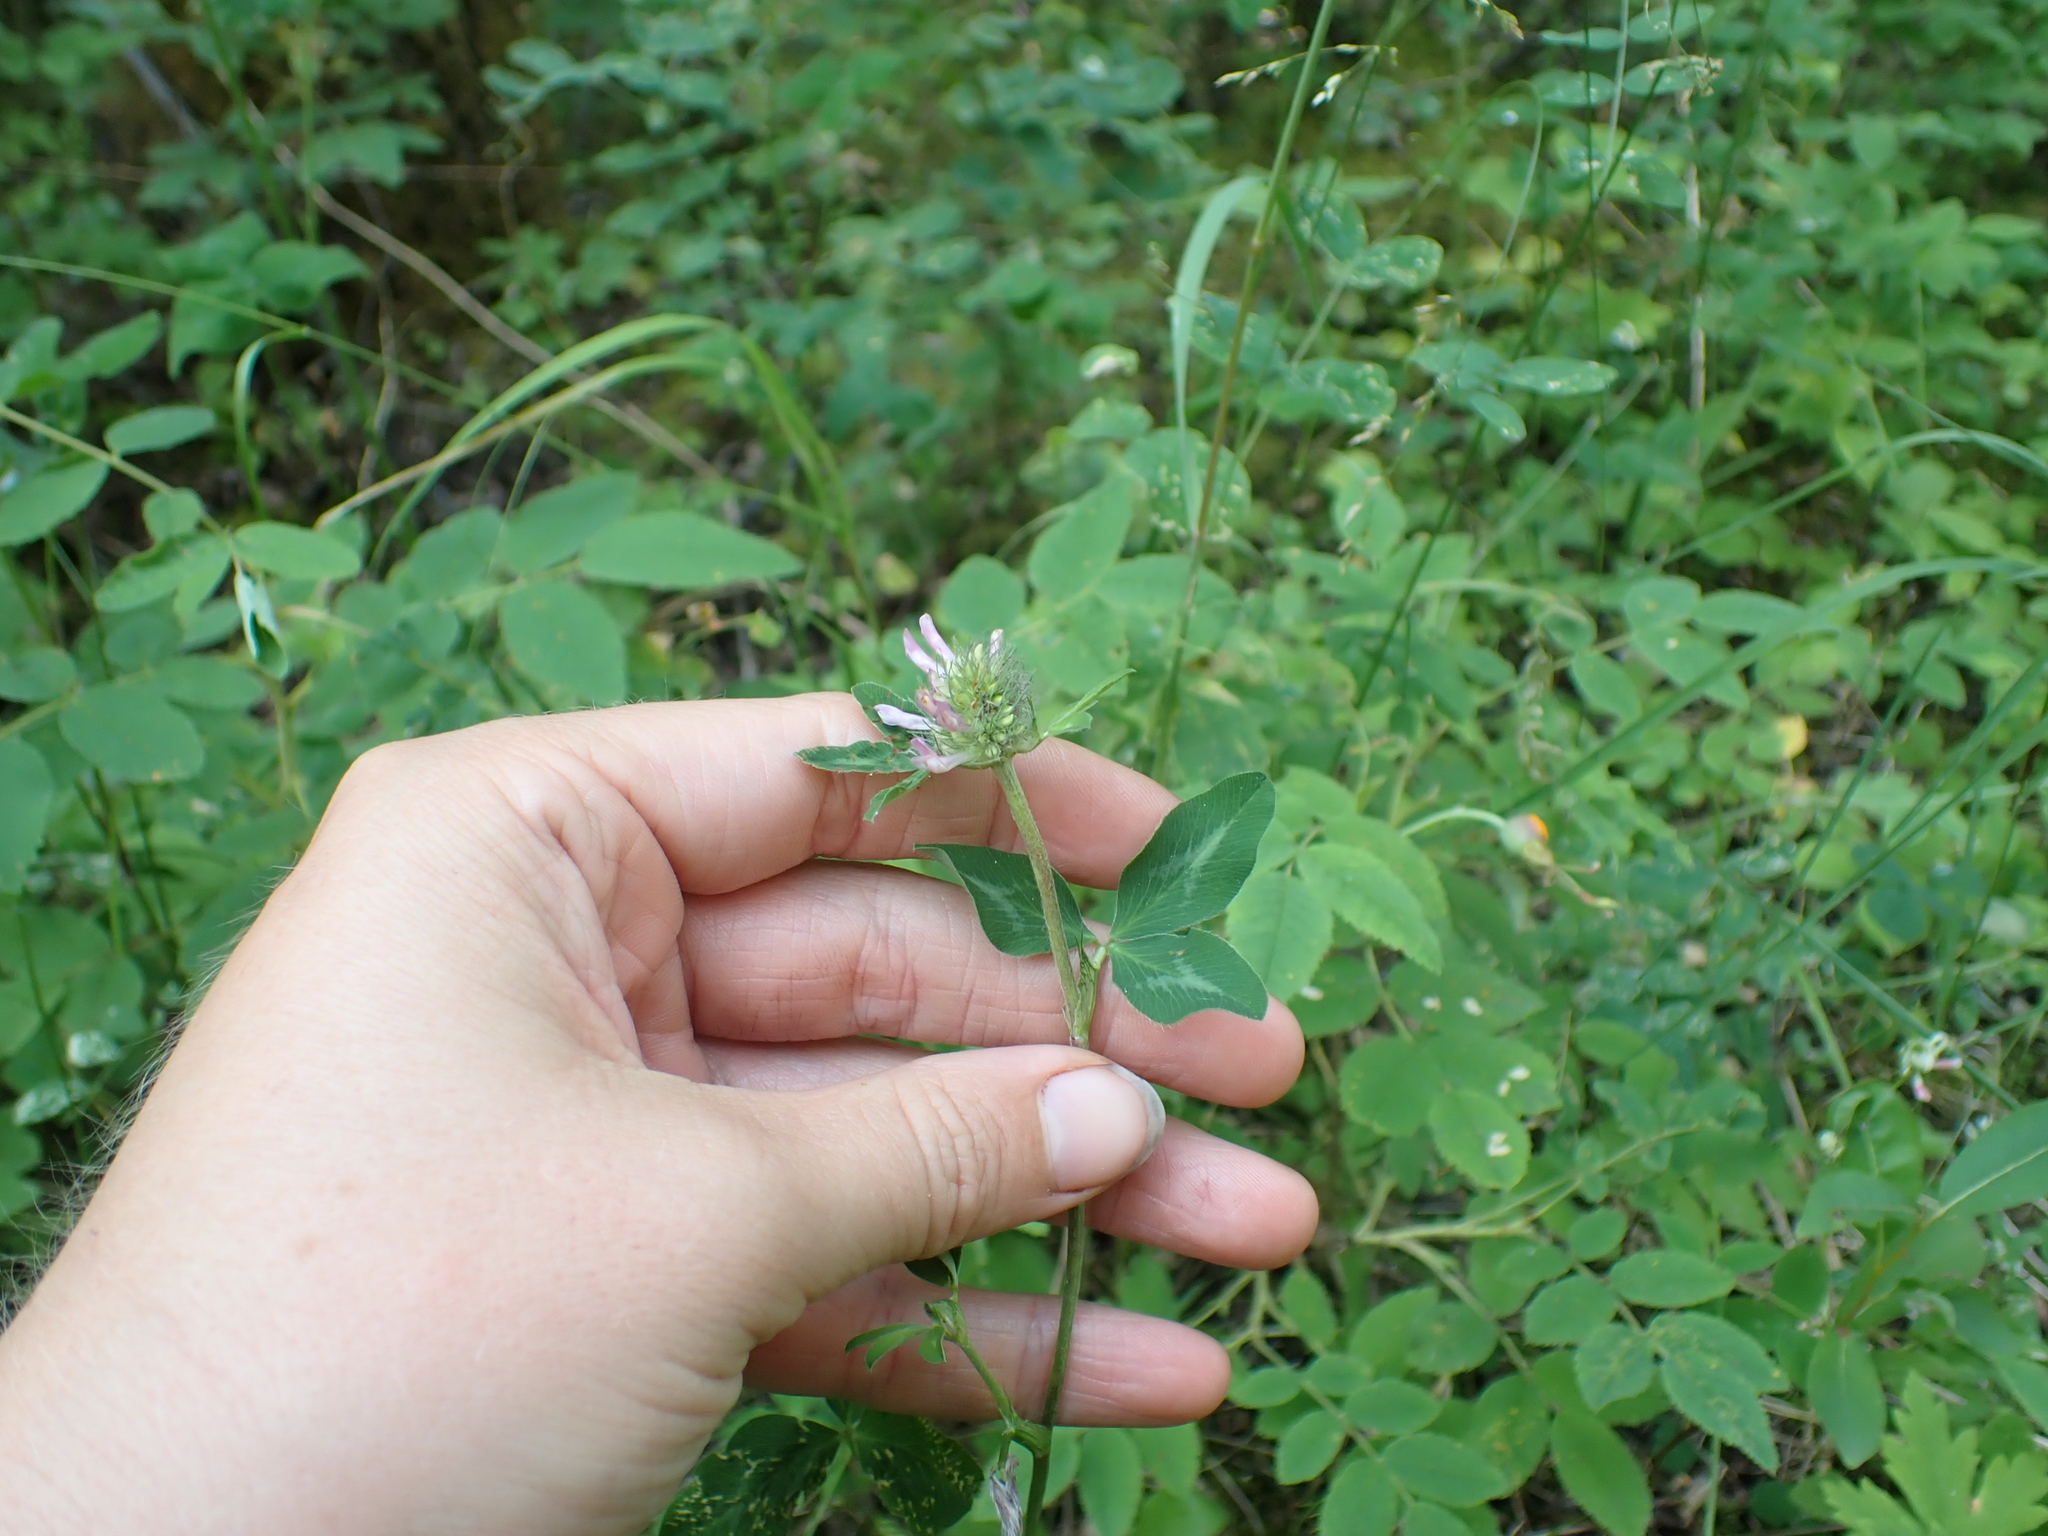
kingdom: Plantae
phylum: Tracheophyta
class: Magnoliopsida
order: Fabales
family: Fabaceae
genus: Trifolium
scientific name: Trifolium pratense
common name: Red clover
